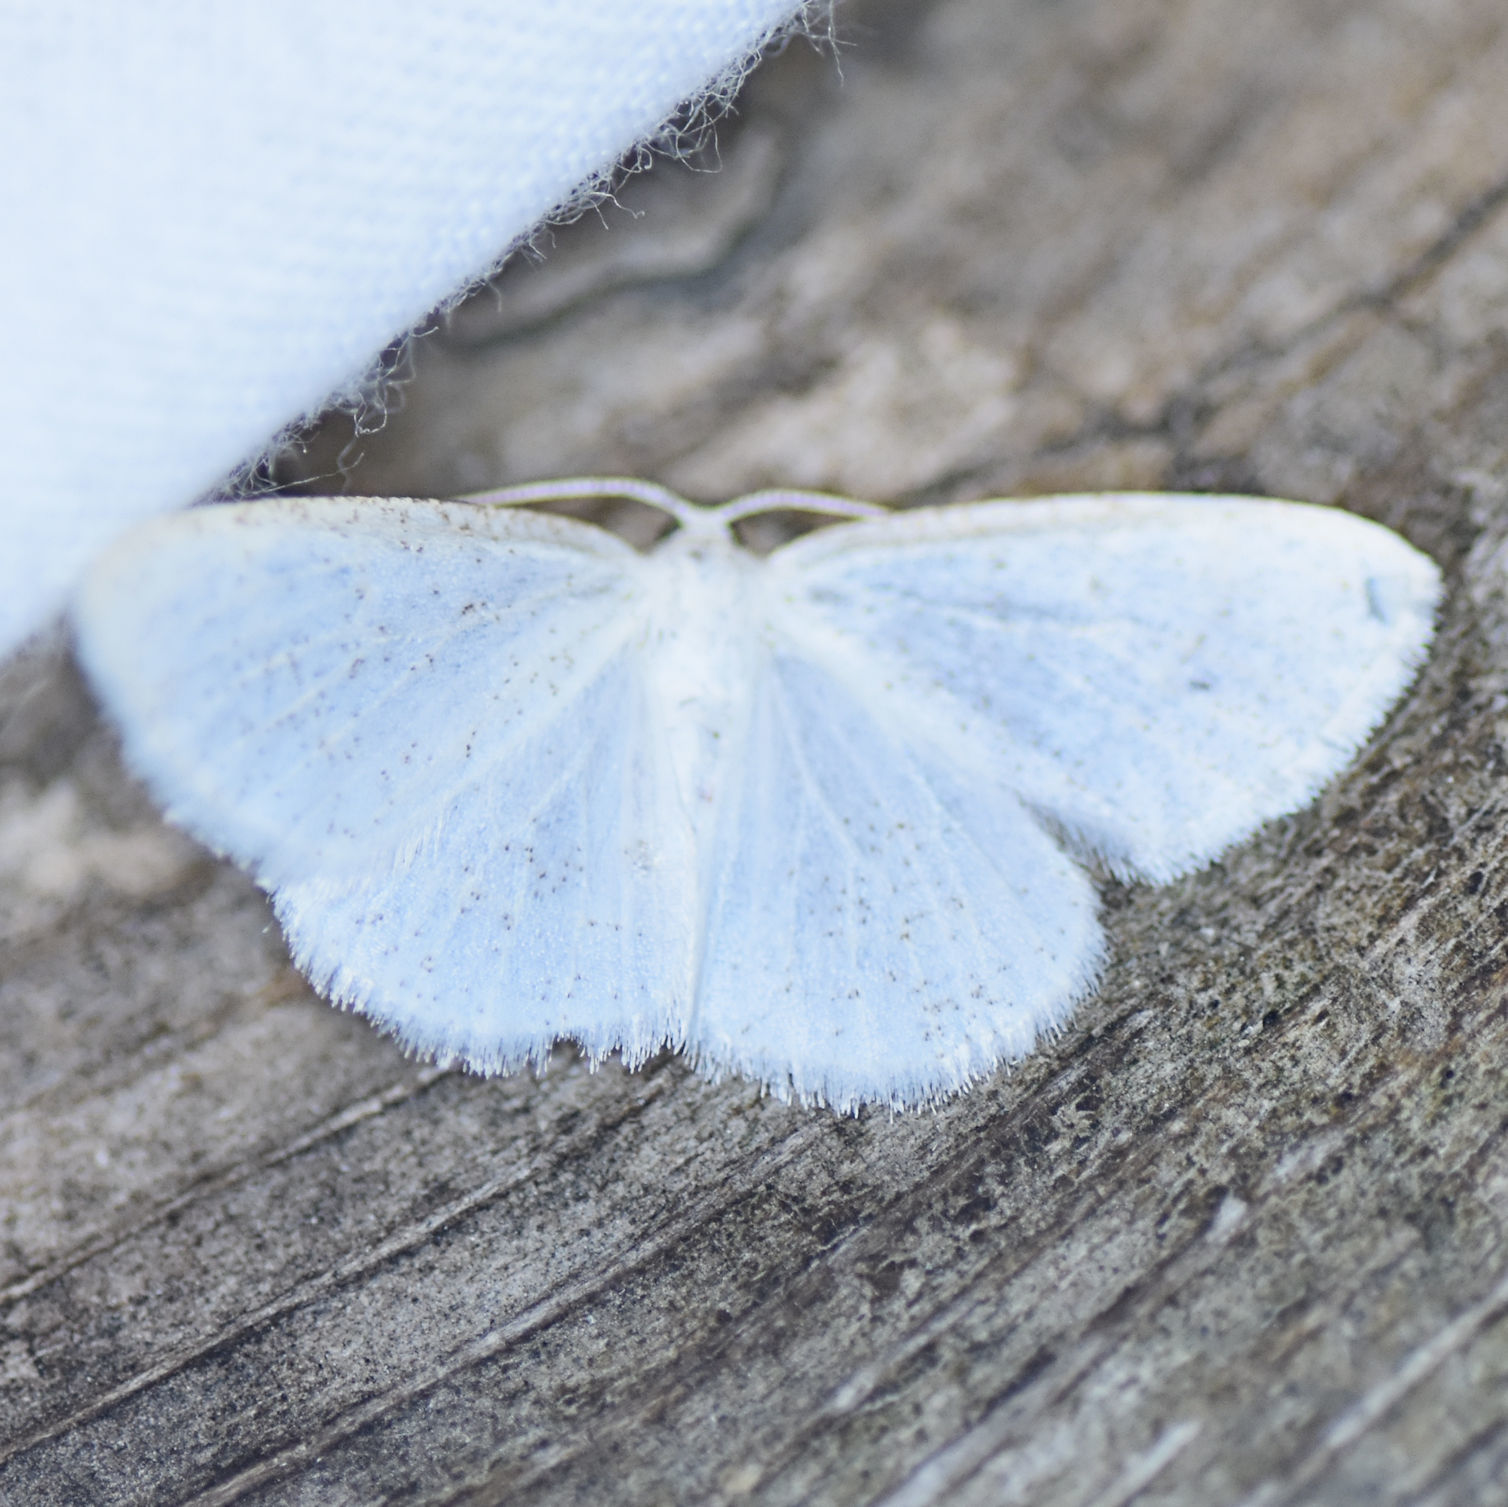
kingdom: Animalia
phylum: Arthropoda
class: Insecta
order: Lepidoptera
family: Geometridae
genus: Protitame
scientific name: Protitame virginalis
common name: Virgin moth
